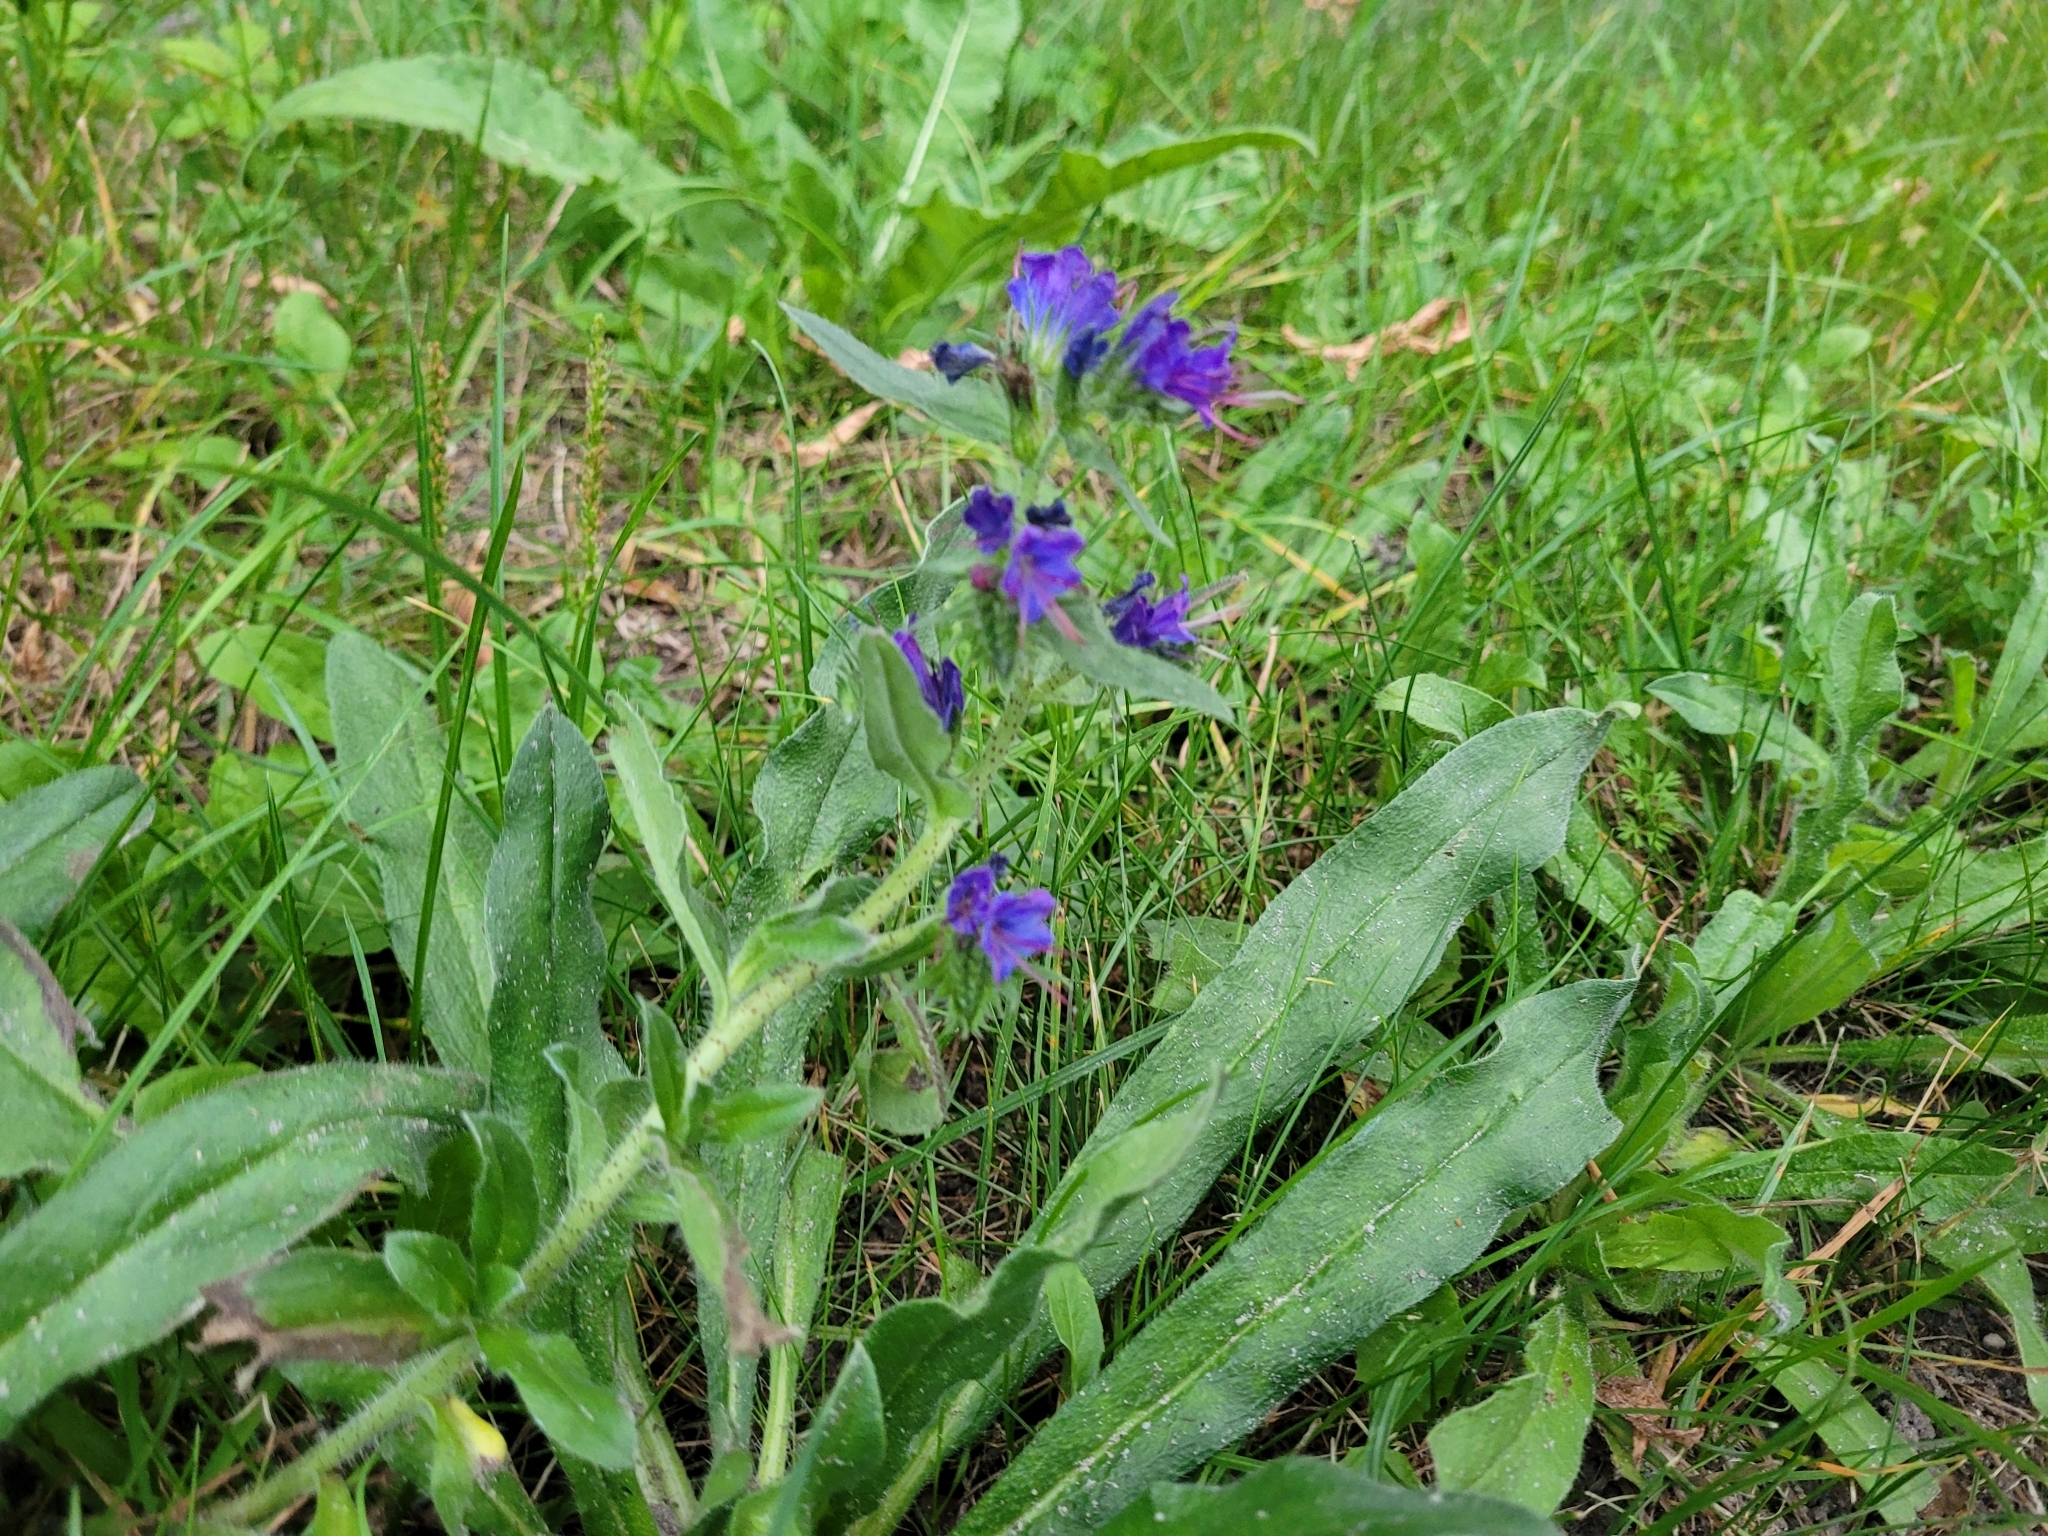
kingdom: Plantae
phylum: Tracheophyta
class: Magnoliopsida
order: Boraginales
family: Boraginaceae
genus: Echium
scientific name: Echium vulgare
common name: Common viper's bugloss
